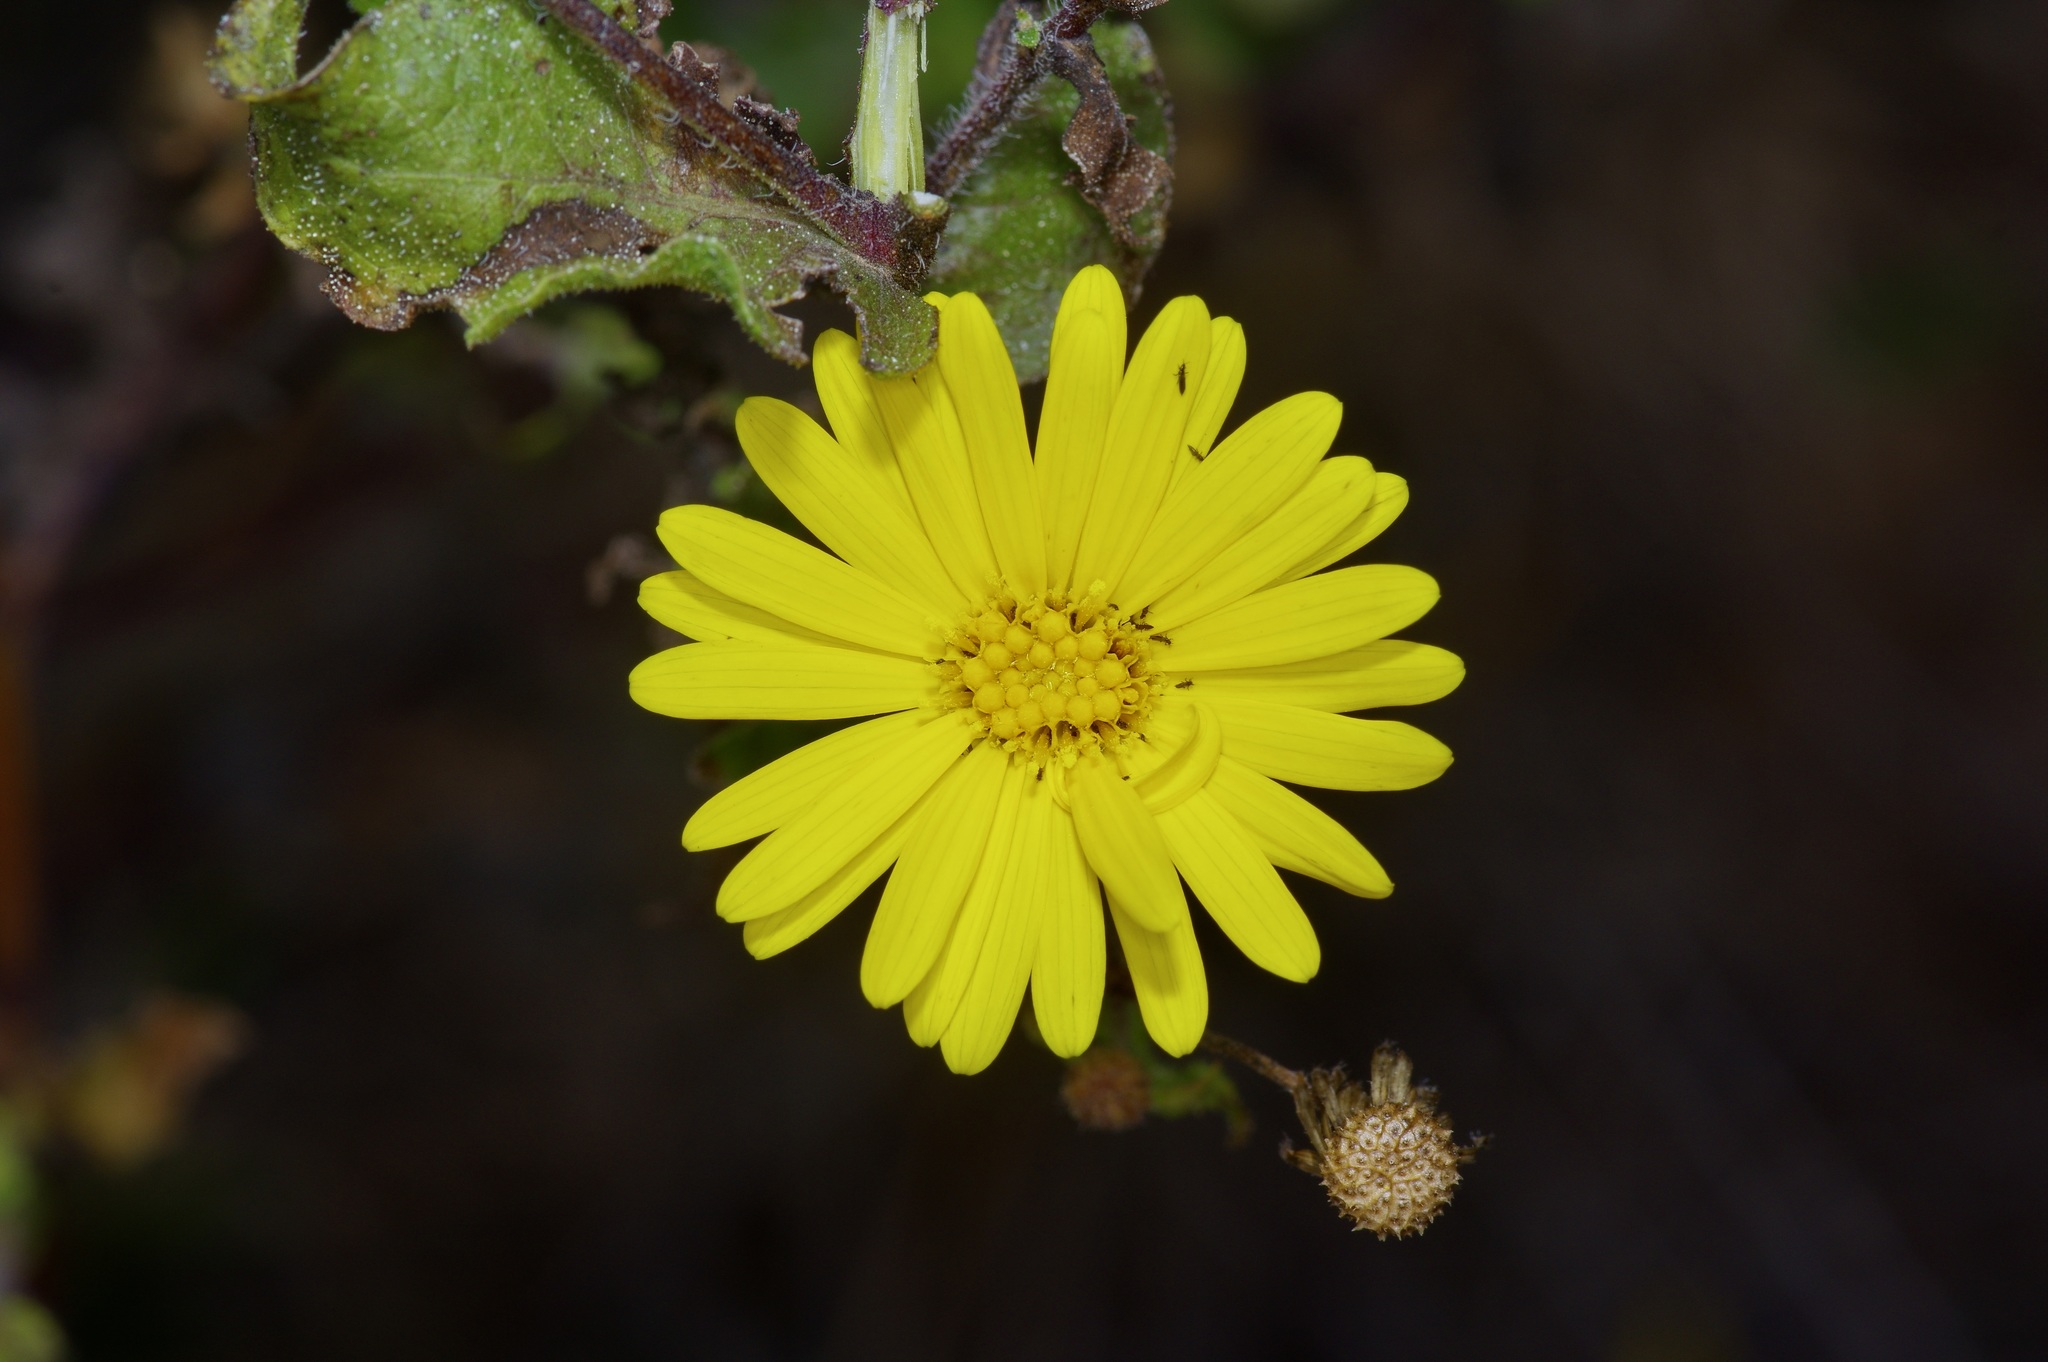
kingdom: Plantae
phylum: Tracheophyta
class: Magnoliopsida
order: Asterales
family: Asteraceae
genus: Heterotheca
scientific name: Heterotheca subaxillaris
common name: Camphorweed
